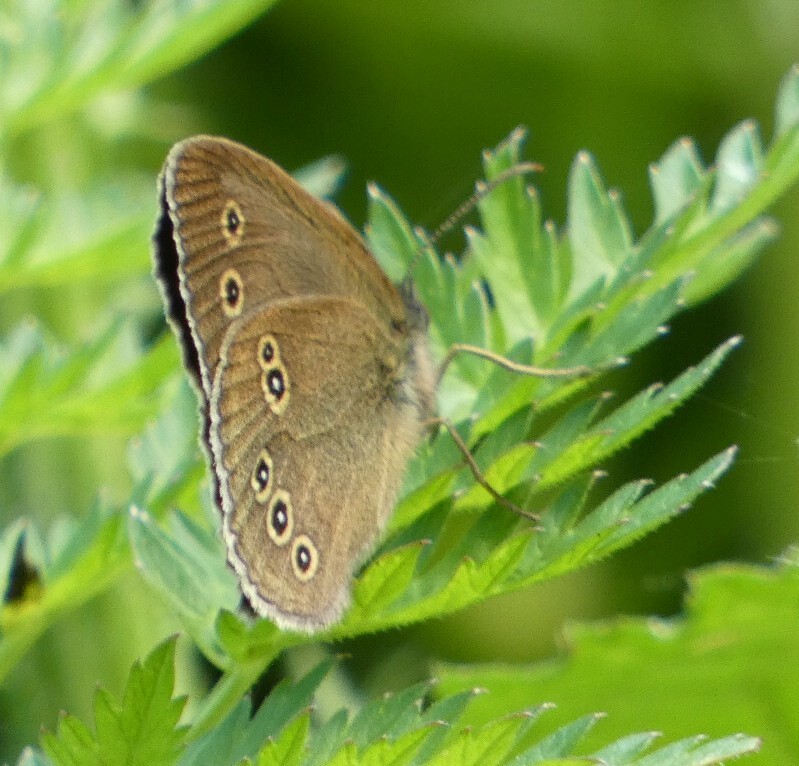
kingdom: Animalia
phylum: Arthropoda
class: Insecta
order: Lepidoptera
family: Nymphalidae
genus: Aphantopus
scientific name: Aphantopus hyperantus
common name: Ringlet
